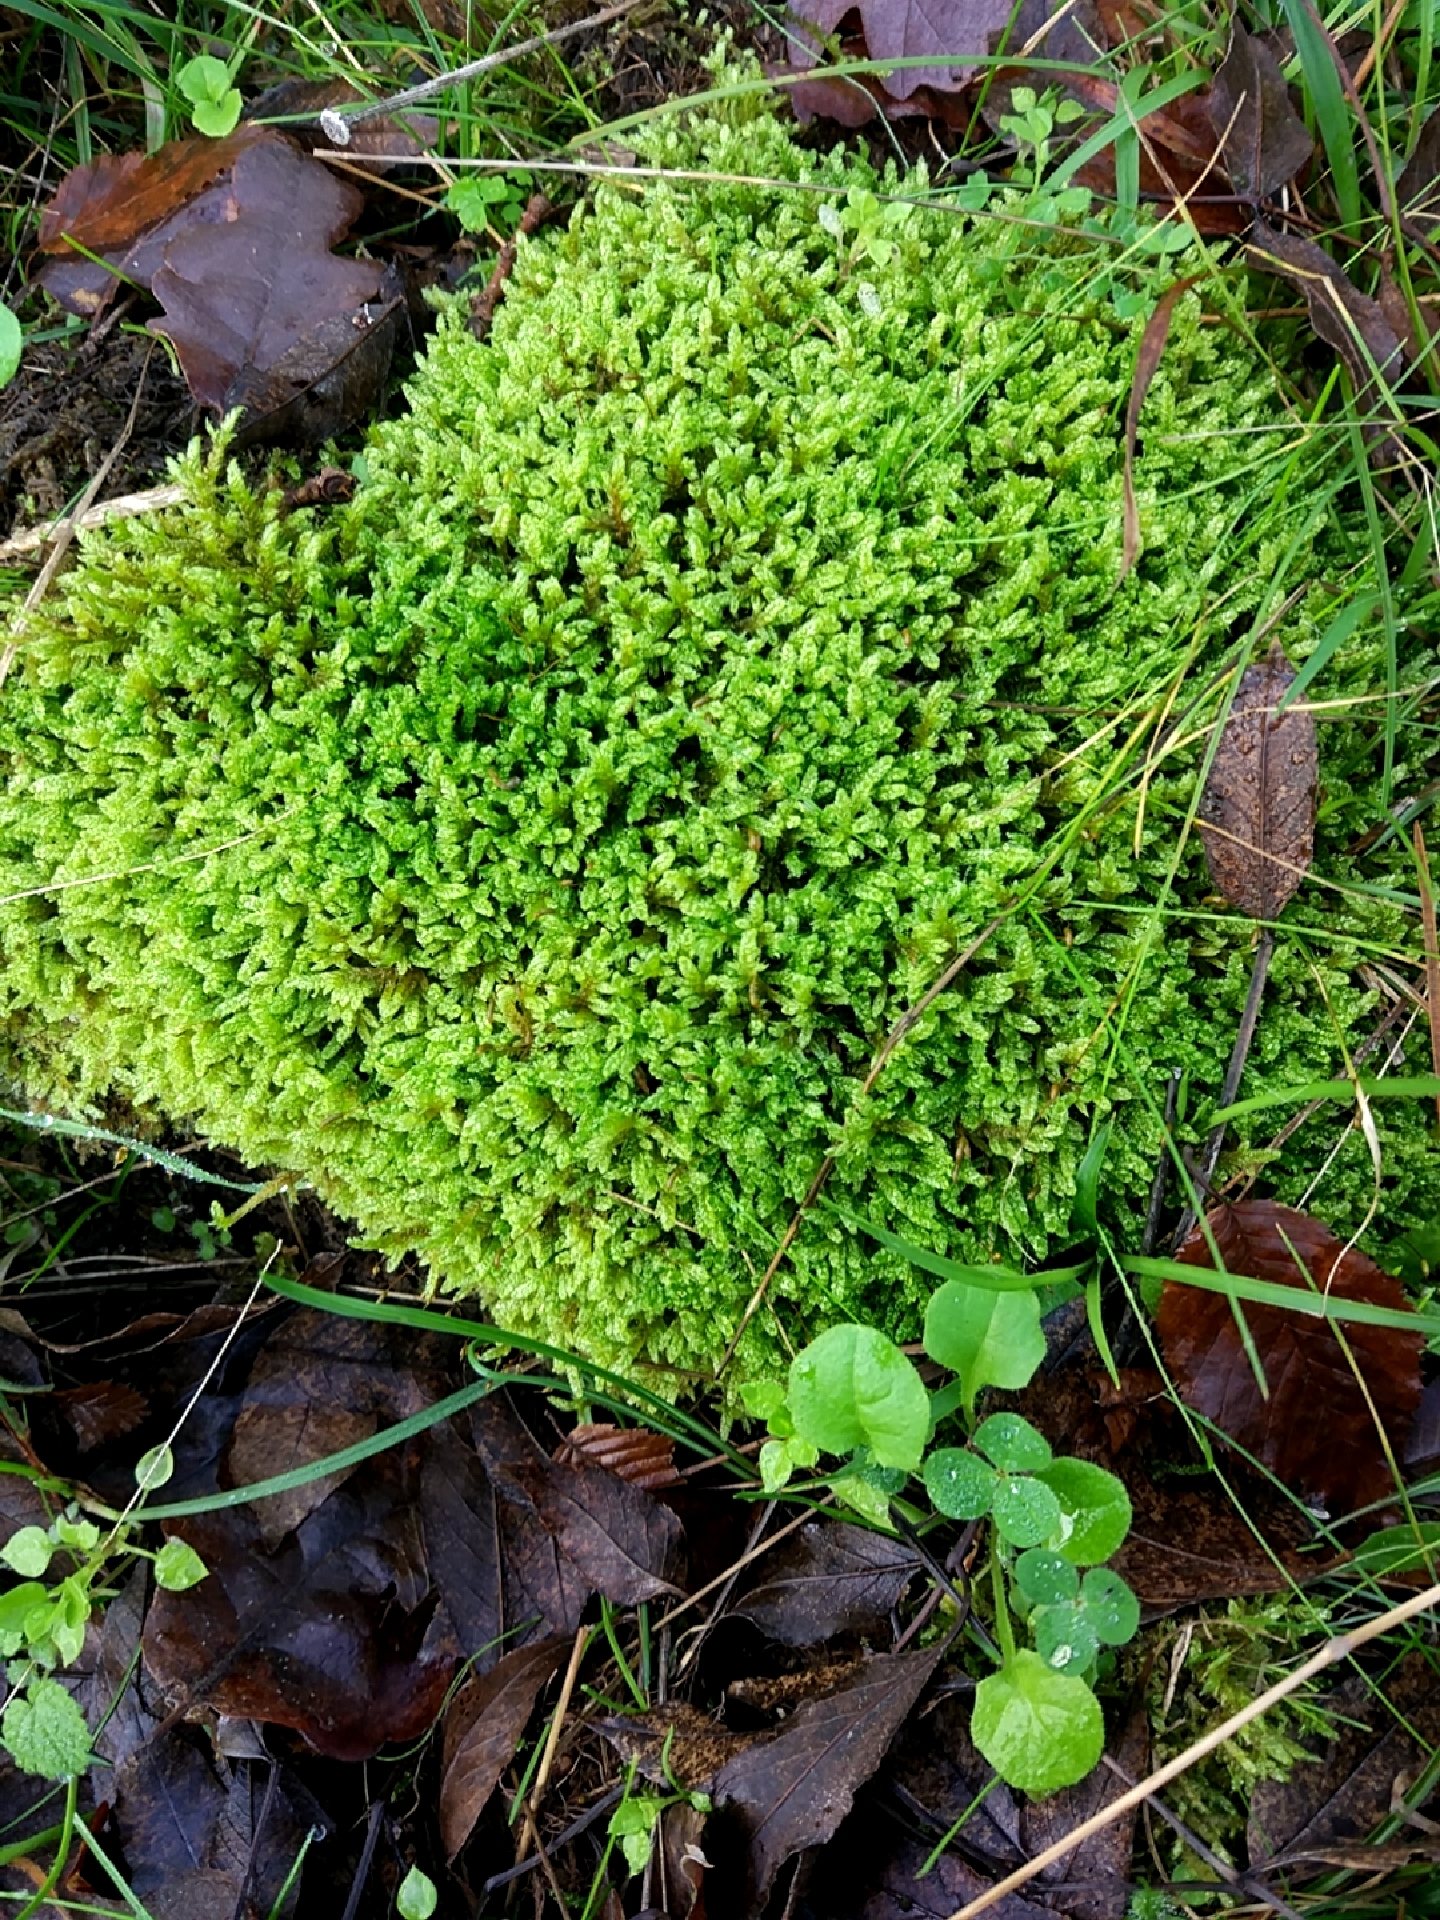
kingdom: Plantae
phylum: Bryophyta
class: Bryopsida
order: Hypnales
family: Hypnaceae
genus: Hypnum
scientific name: Hypnum cupressiforme
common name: Cypress-leaved plait-moss
